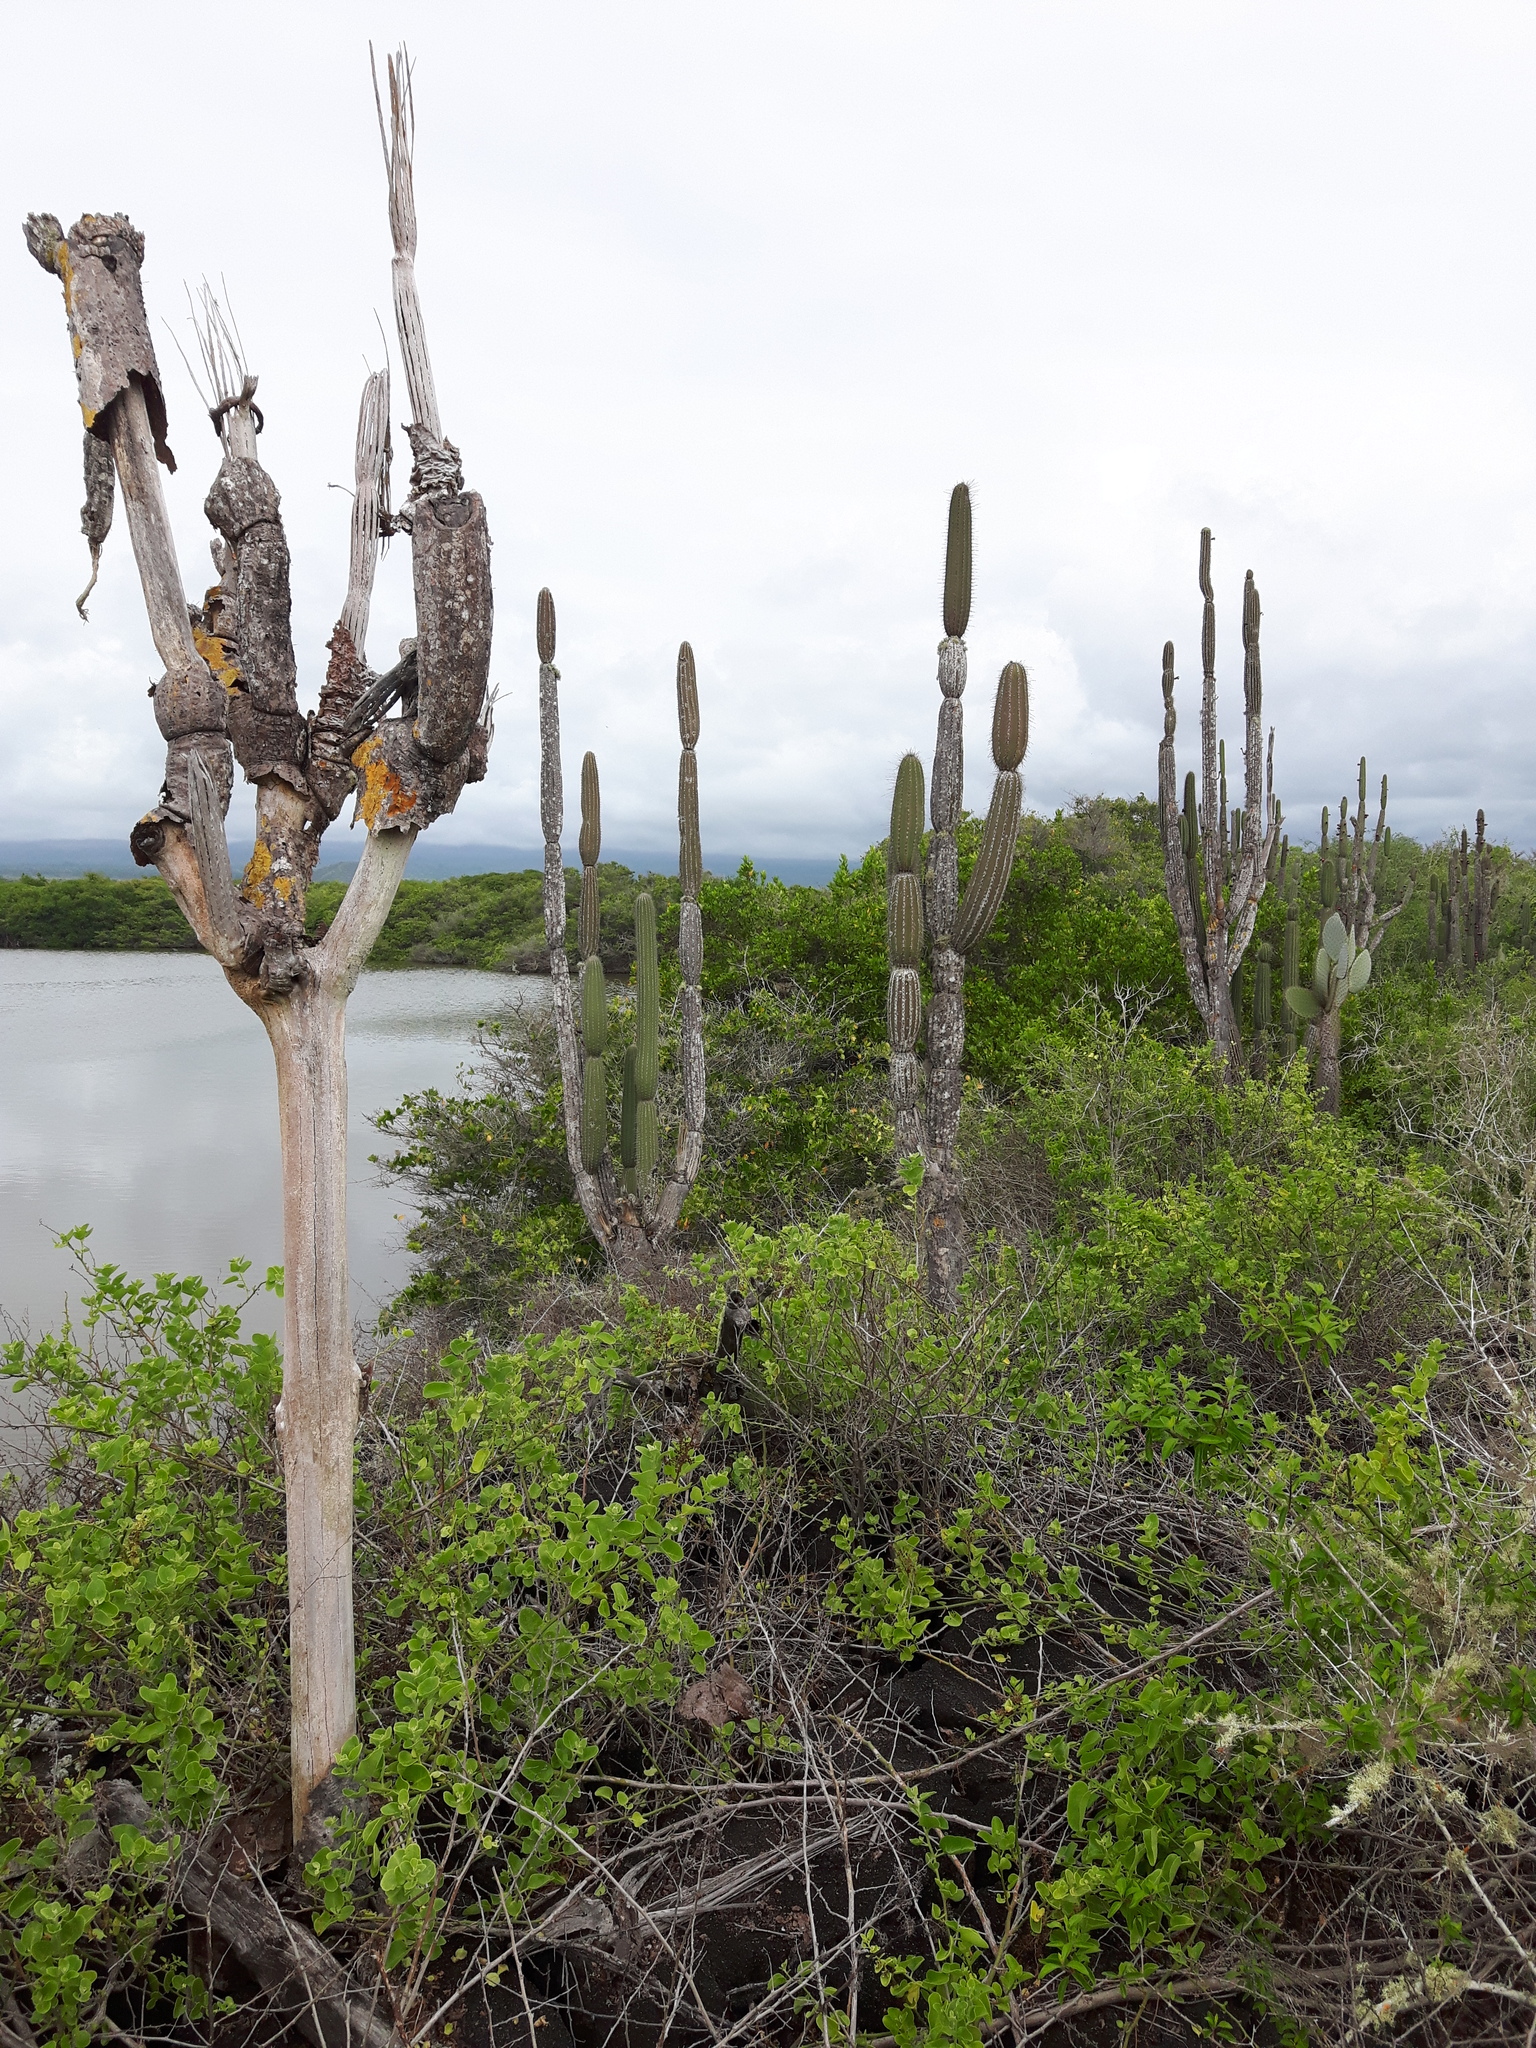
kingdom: Plantae
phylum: Tracheophyta
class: Magnoliopsida
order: Caryophyllales
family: Cactaceae
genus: Jasminocereus
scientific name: Jasminocereus thouarsii
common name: Candelabra cactus
